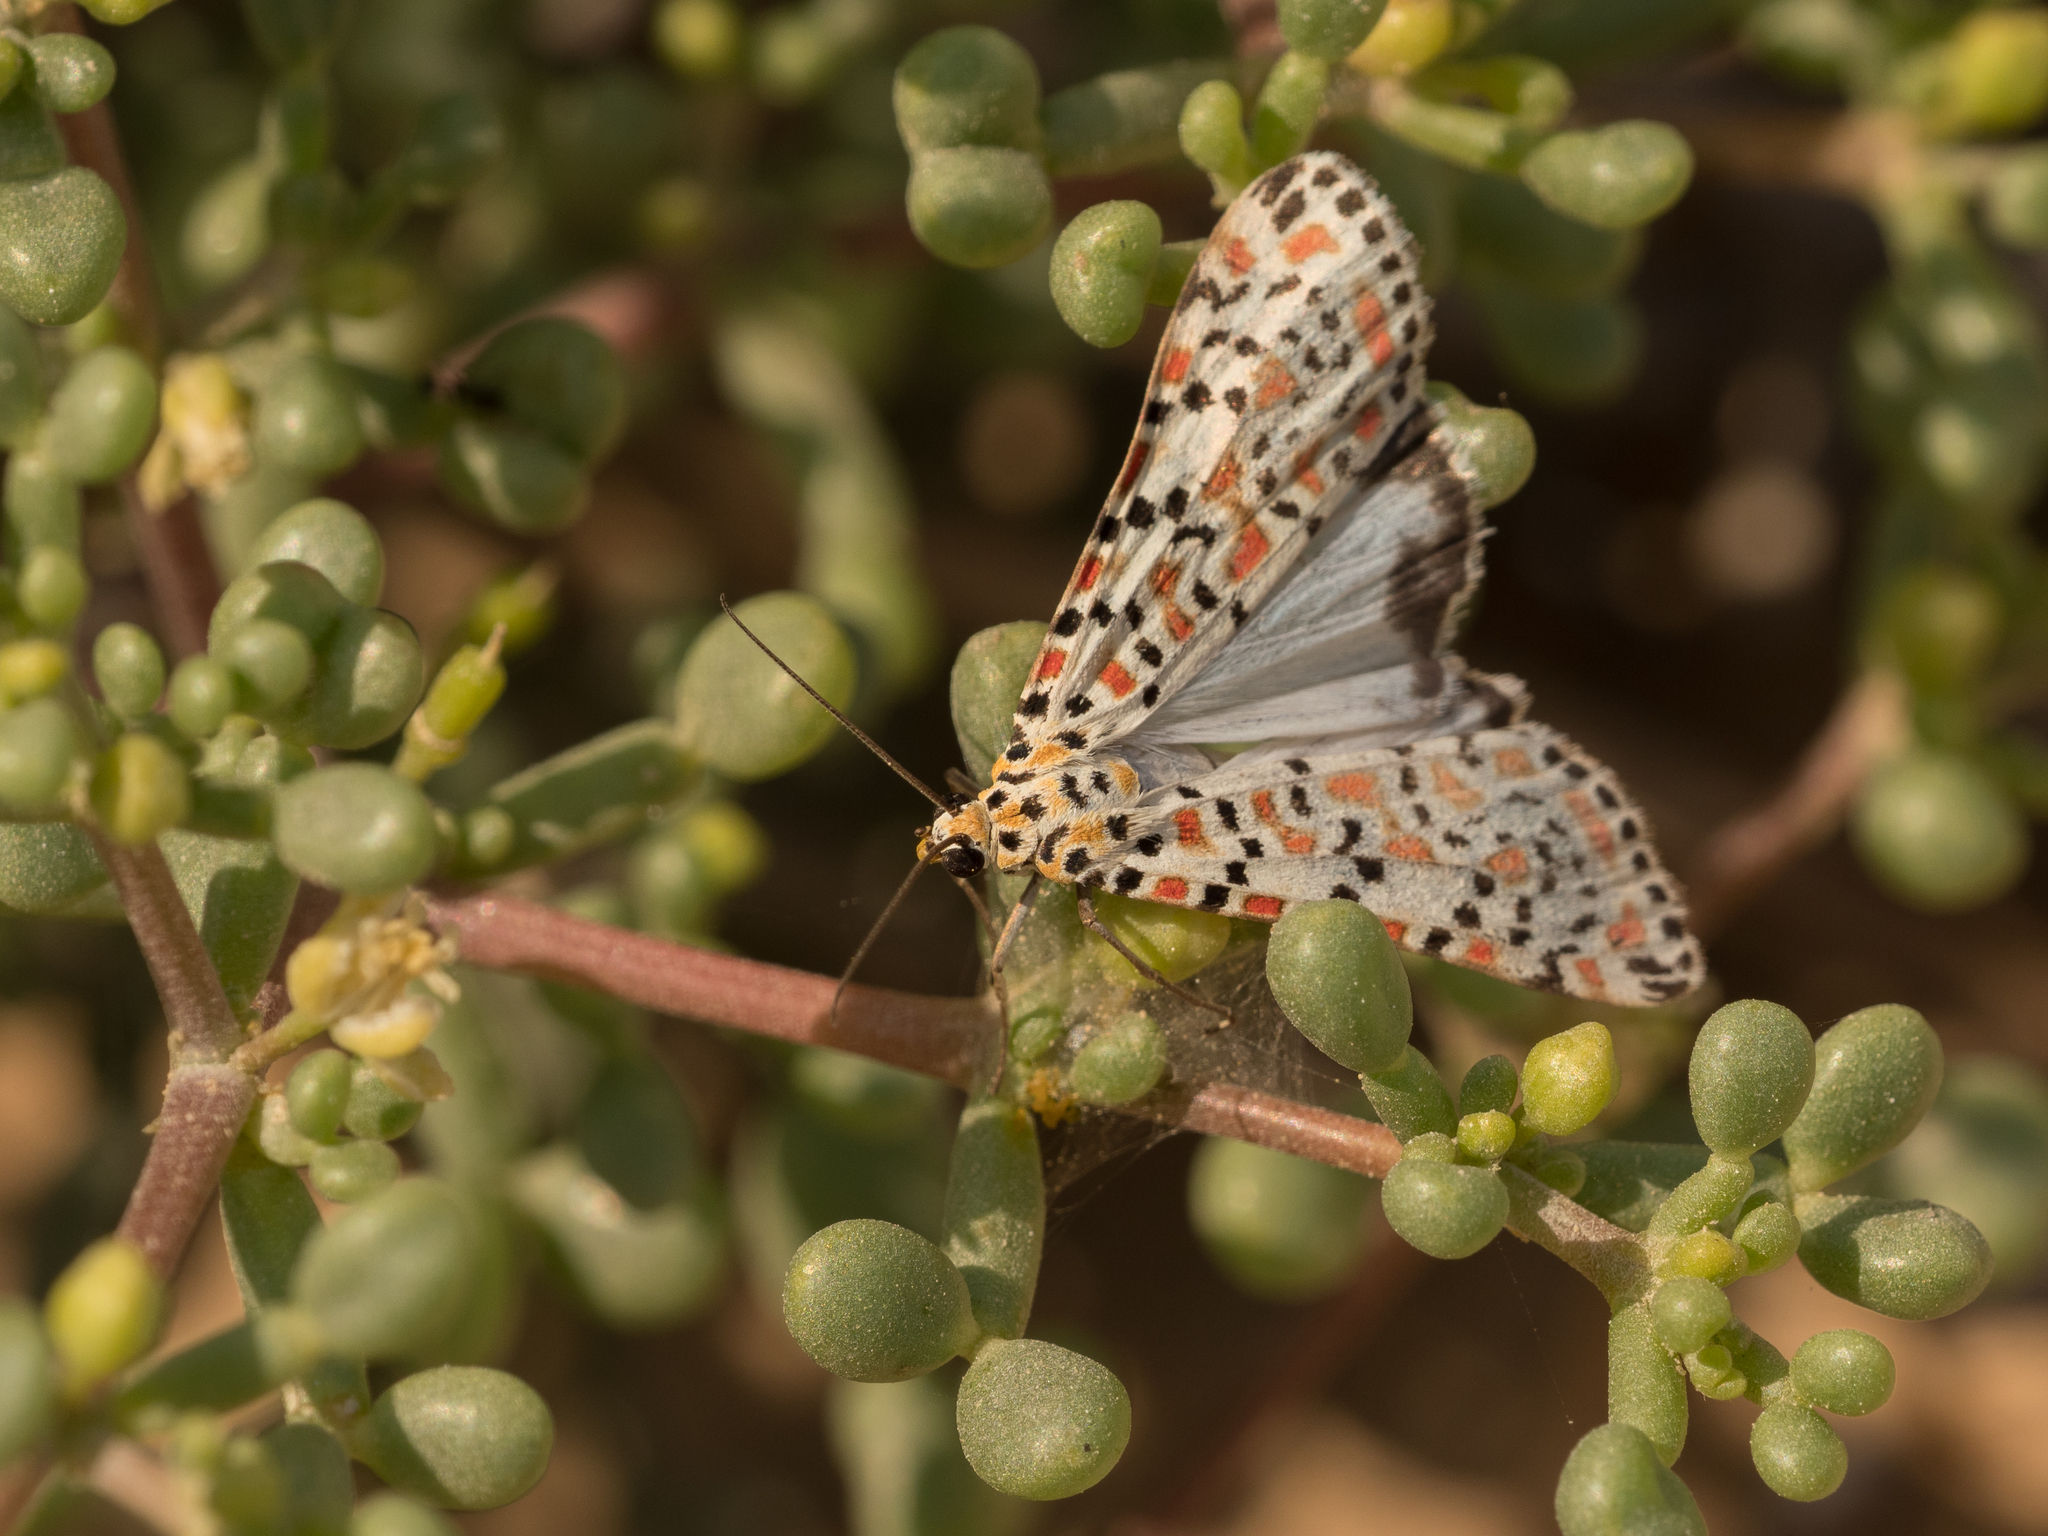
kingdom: Animalia
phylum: Arthropoda
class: Insecta
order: Lepidoptera
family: Erebidae
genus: Utetheisa
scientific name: Utetheisa pulchella
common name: Crimson speckled
